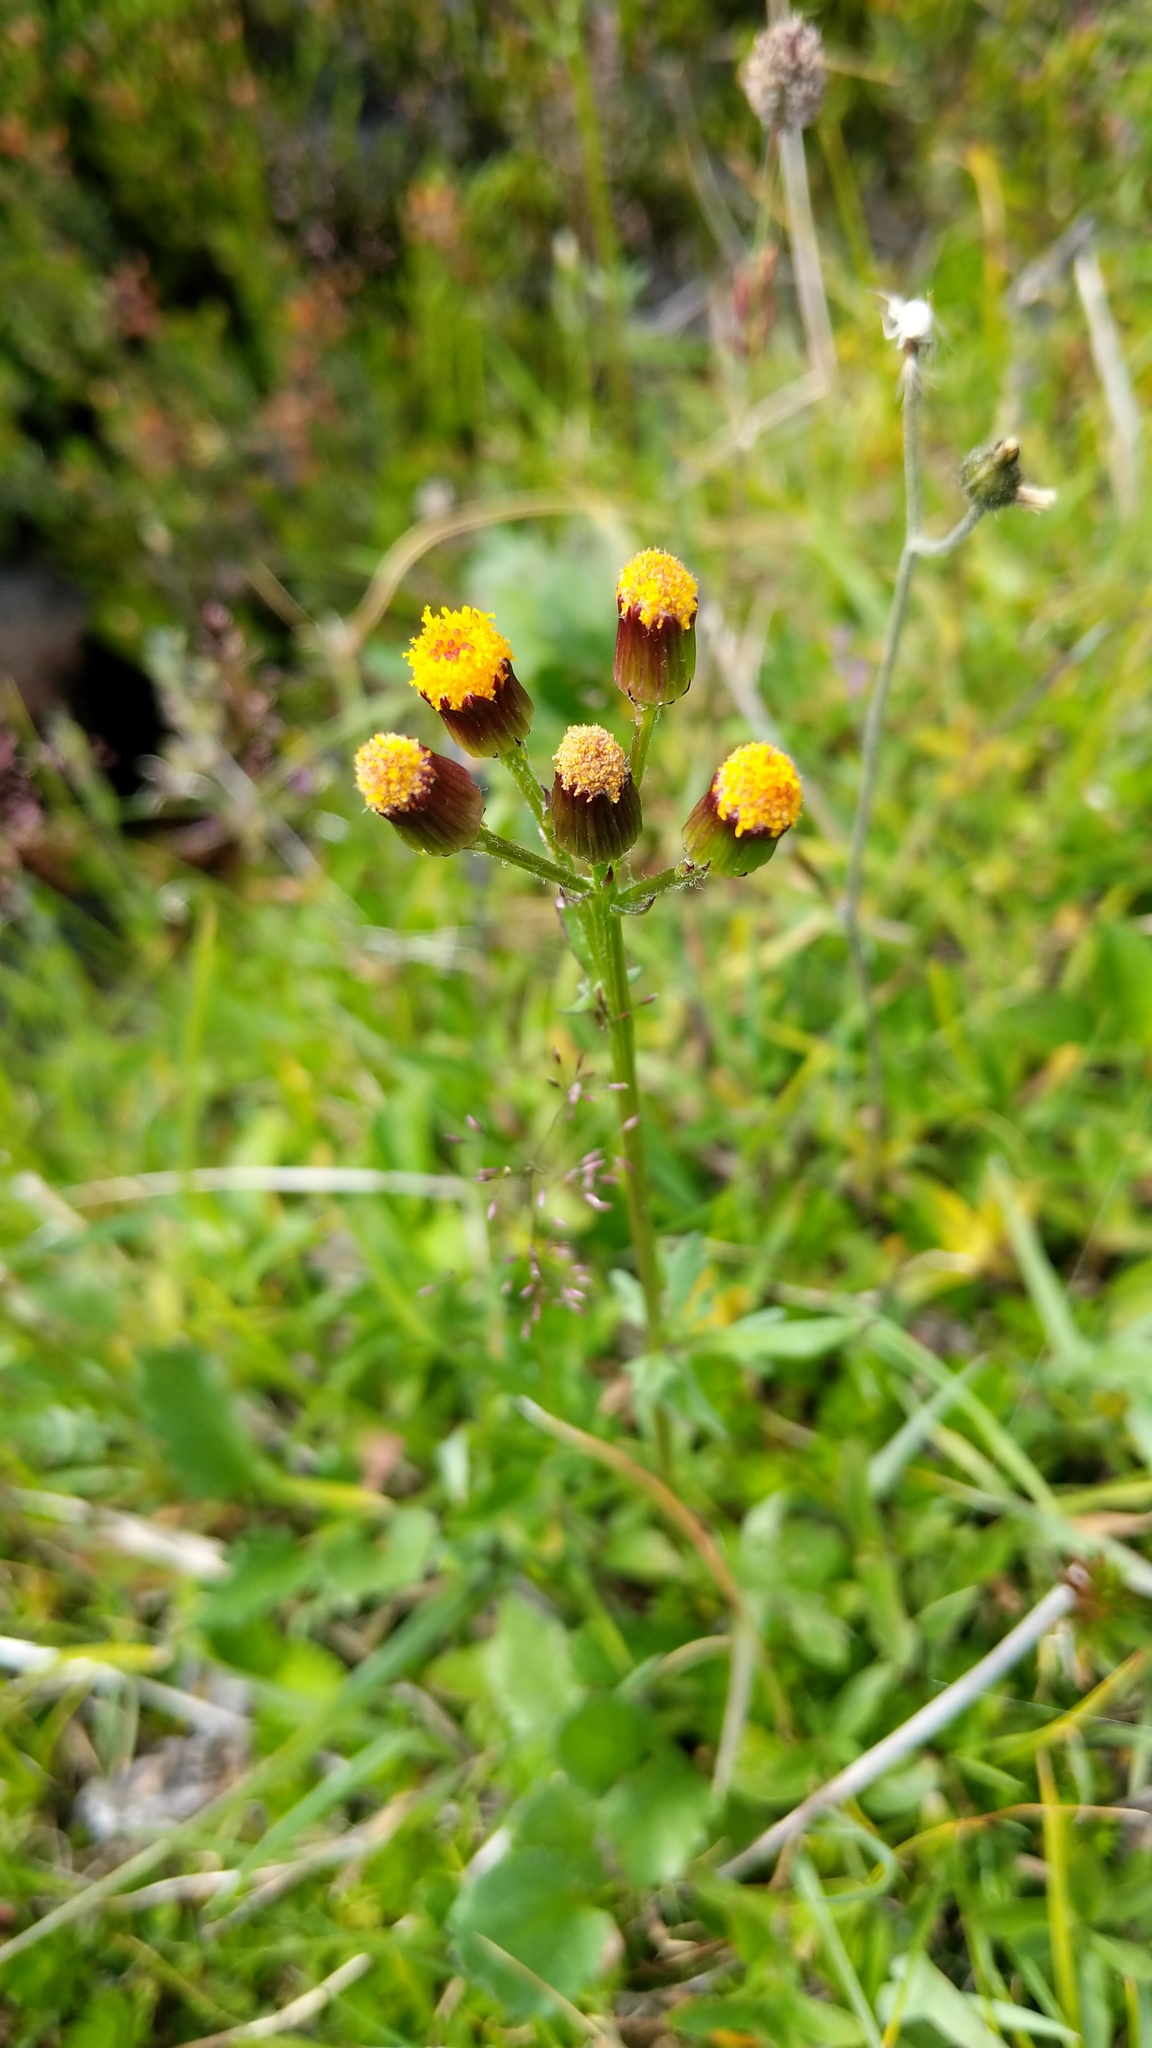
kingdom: Plantae
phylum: Tracheophyta
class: Magnoliopsida
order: Asterales
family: Asteraceae
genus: Packera
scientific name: Packera pauciflora
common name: Alpine groundsel
